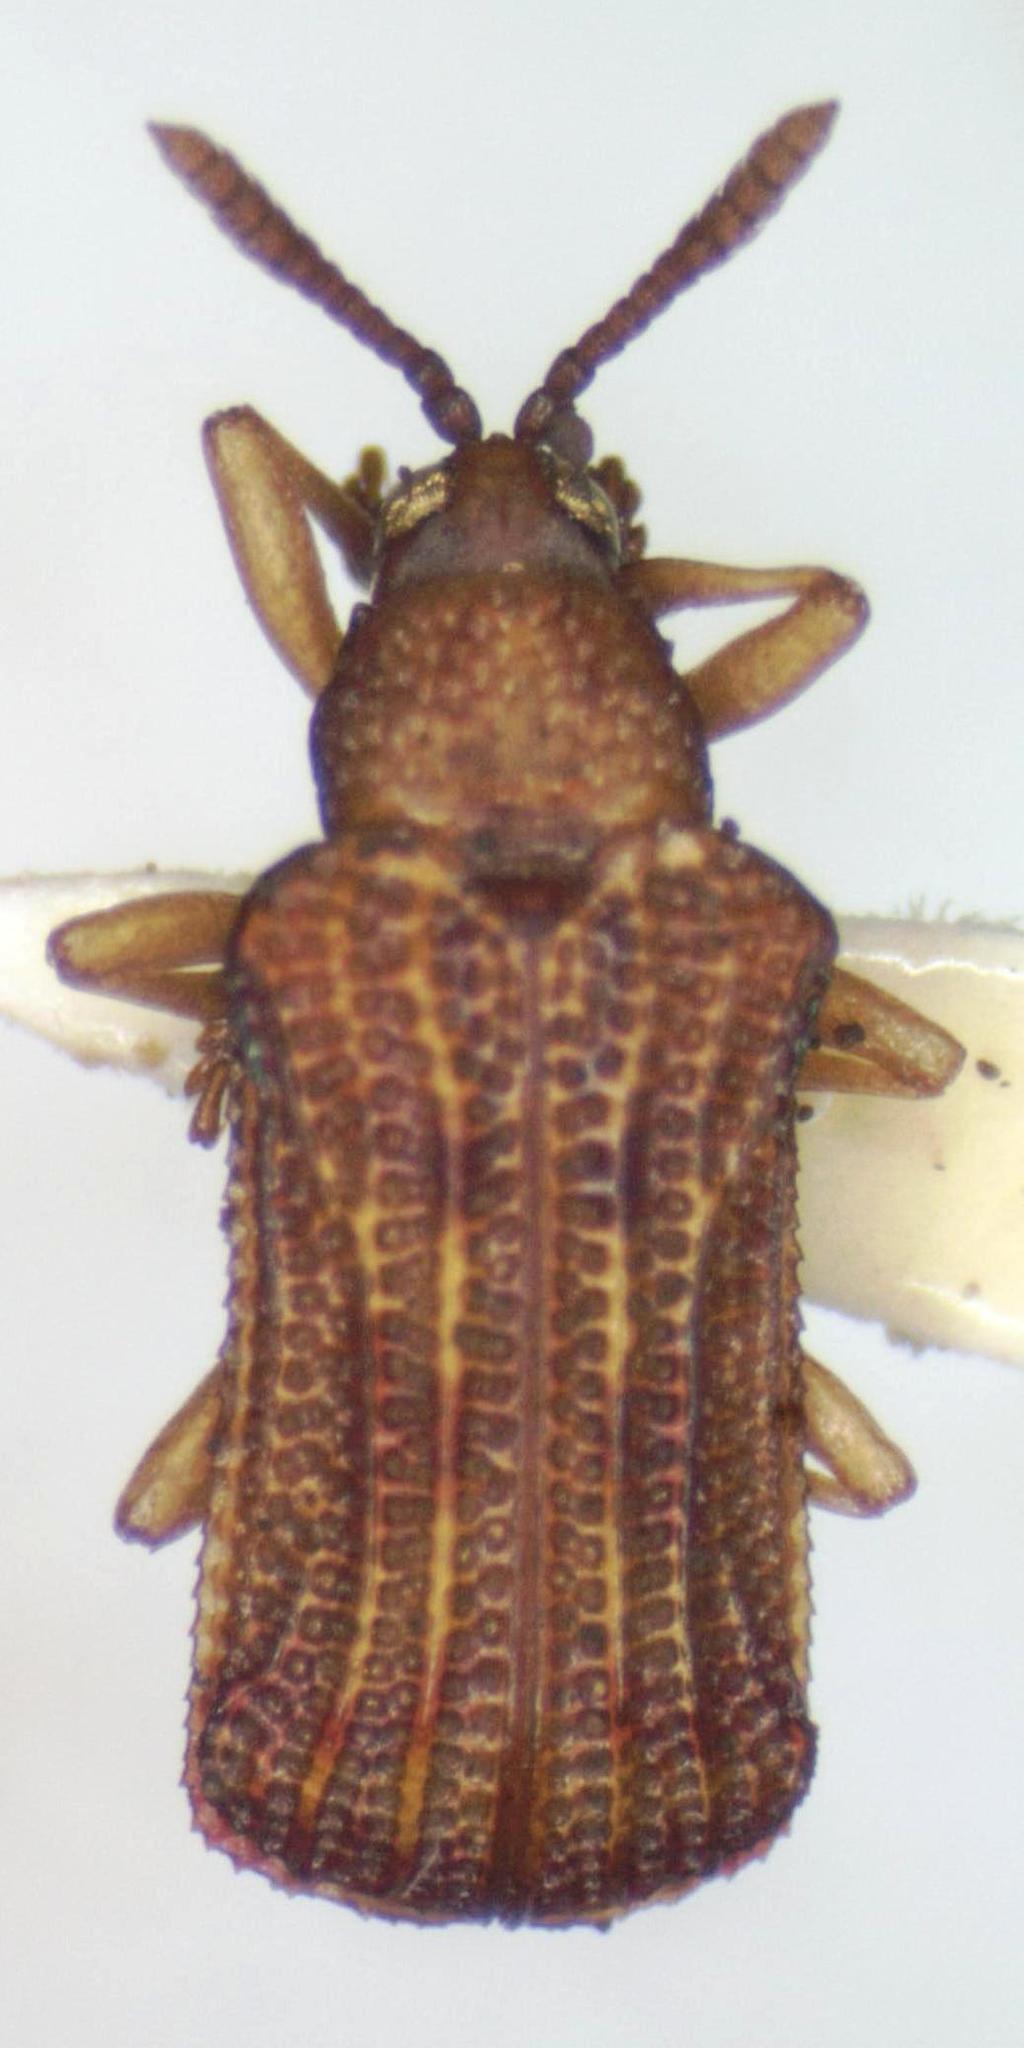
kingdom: Animalia
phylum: Arthropoda
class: Insecta
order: Coleoptera
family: Chrysomelidae
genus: Baliosus
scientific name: Baliosus marmoratus
